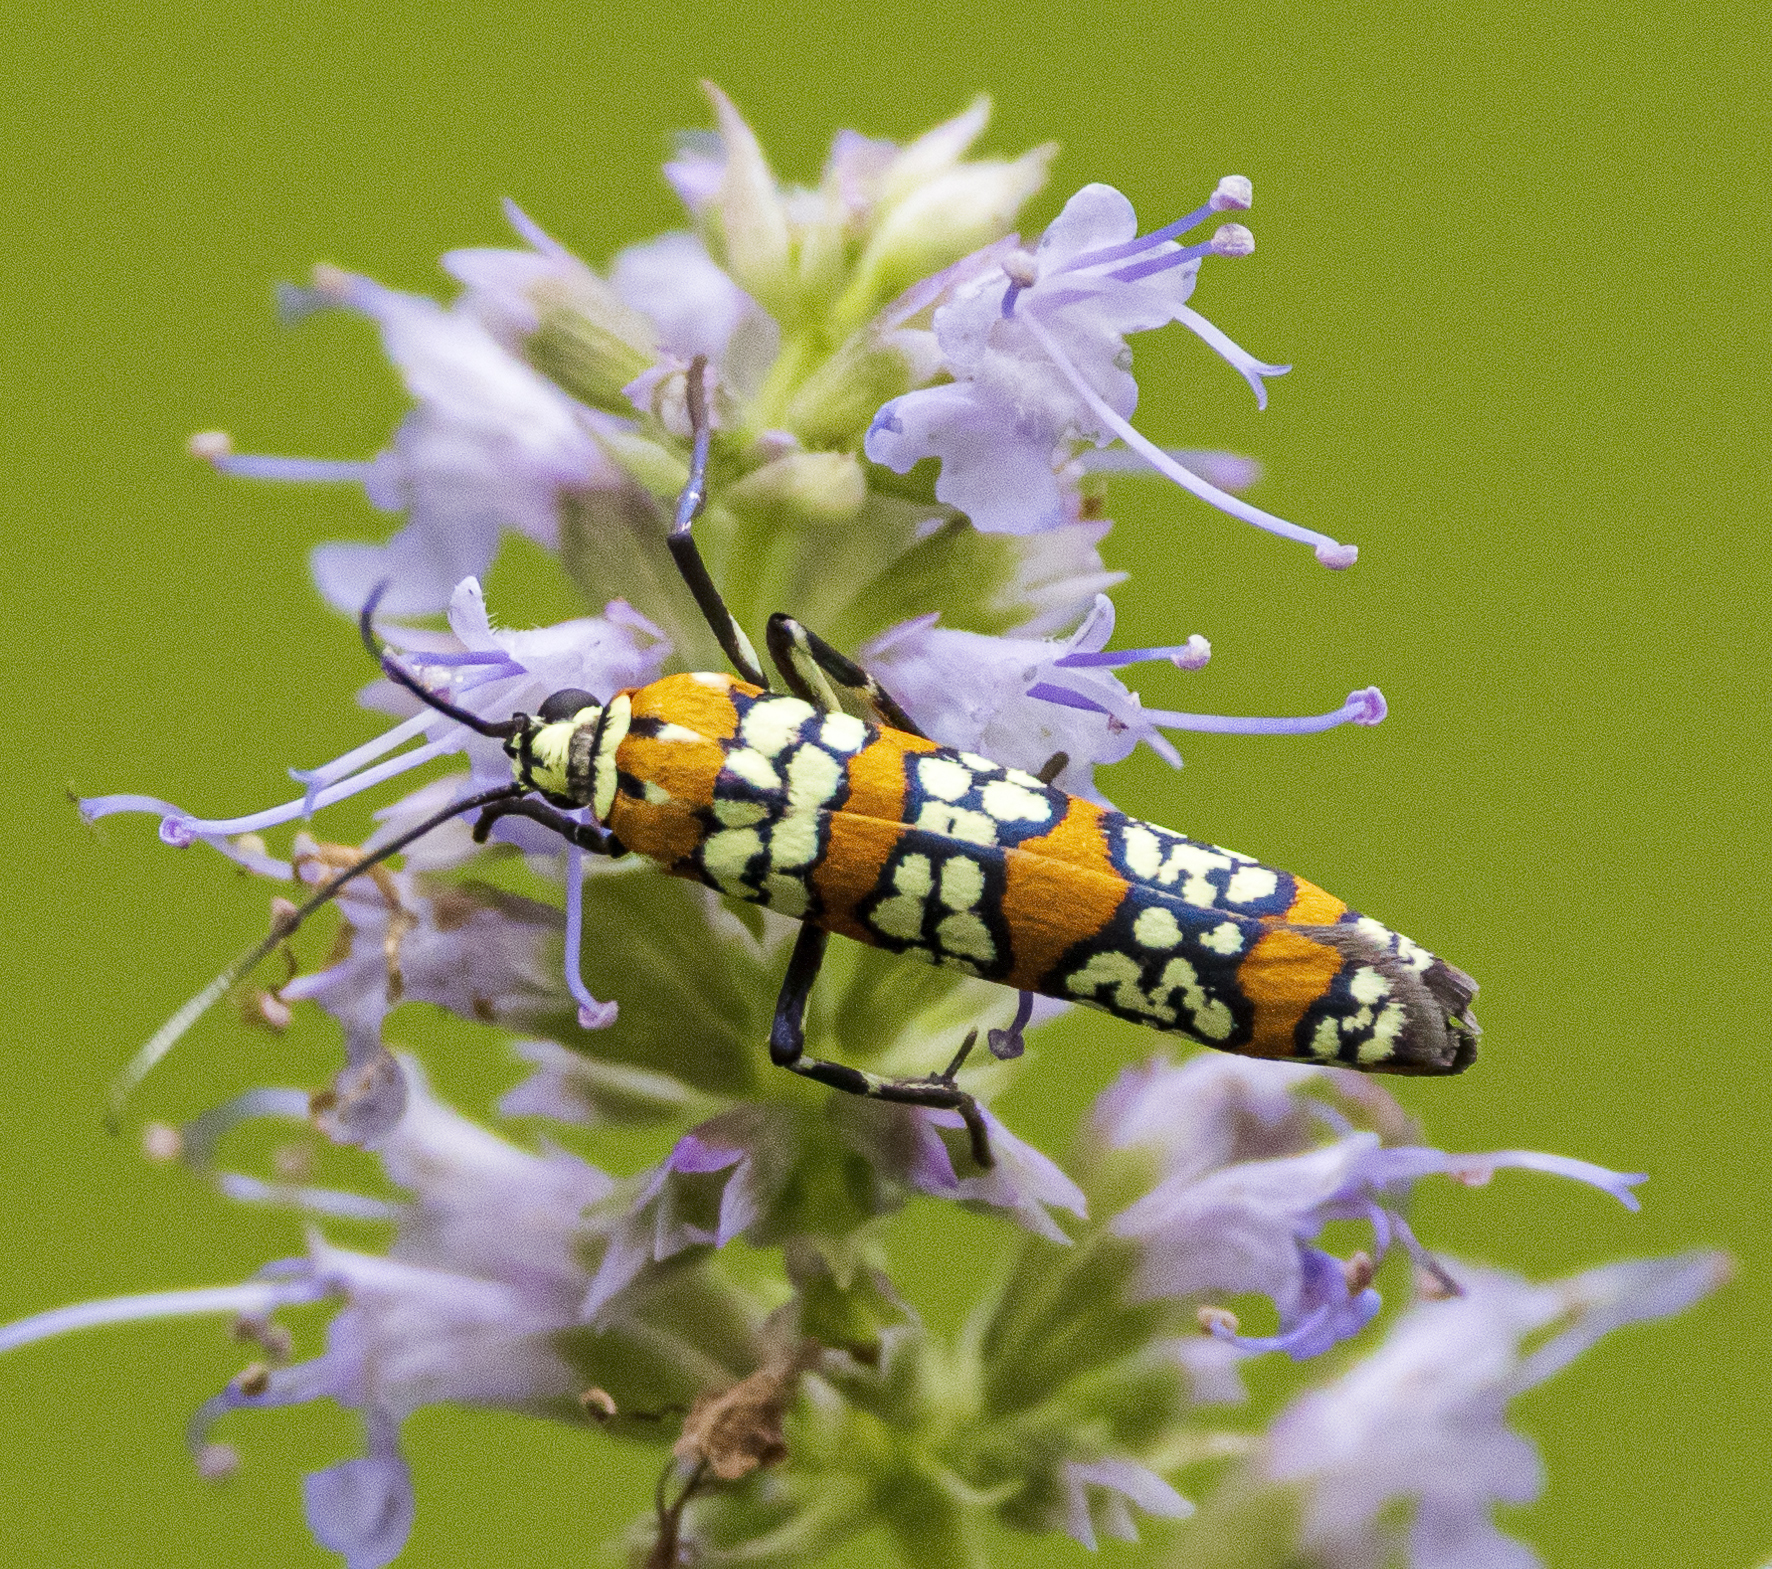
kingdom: Animalia
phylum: Arthropoda
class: Insecta
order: Lepidoptera
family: Attevidae
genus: Atteva
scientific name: Atteva punctella
